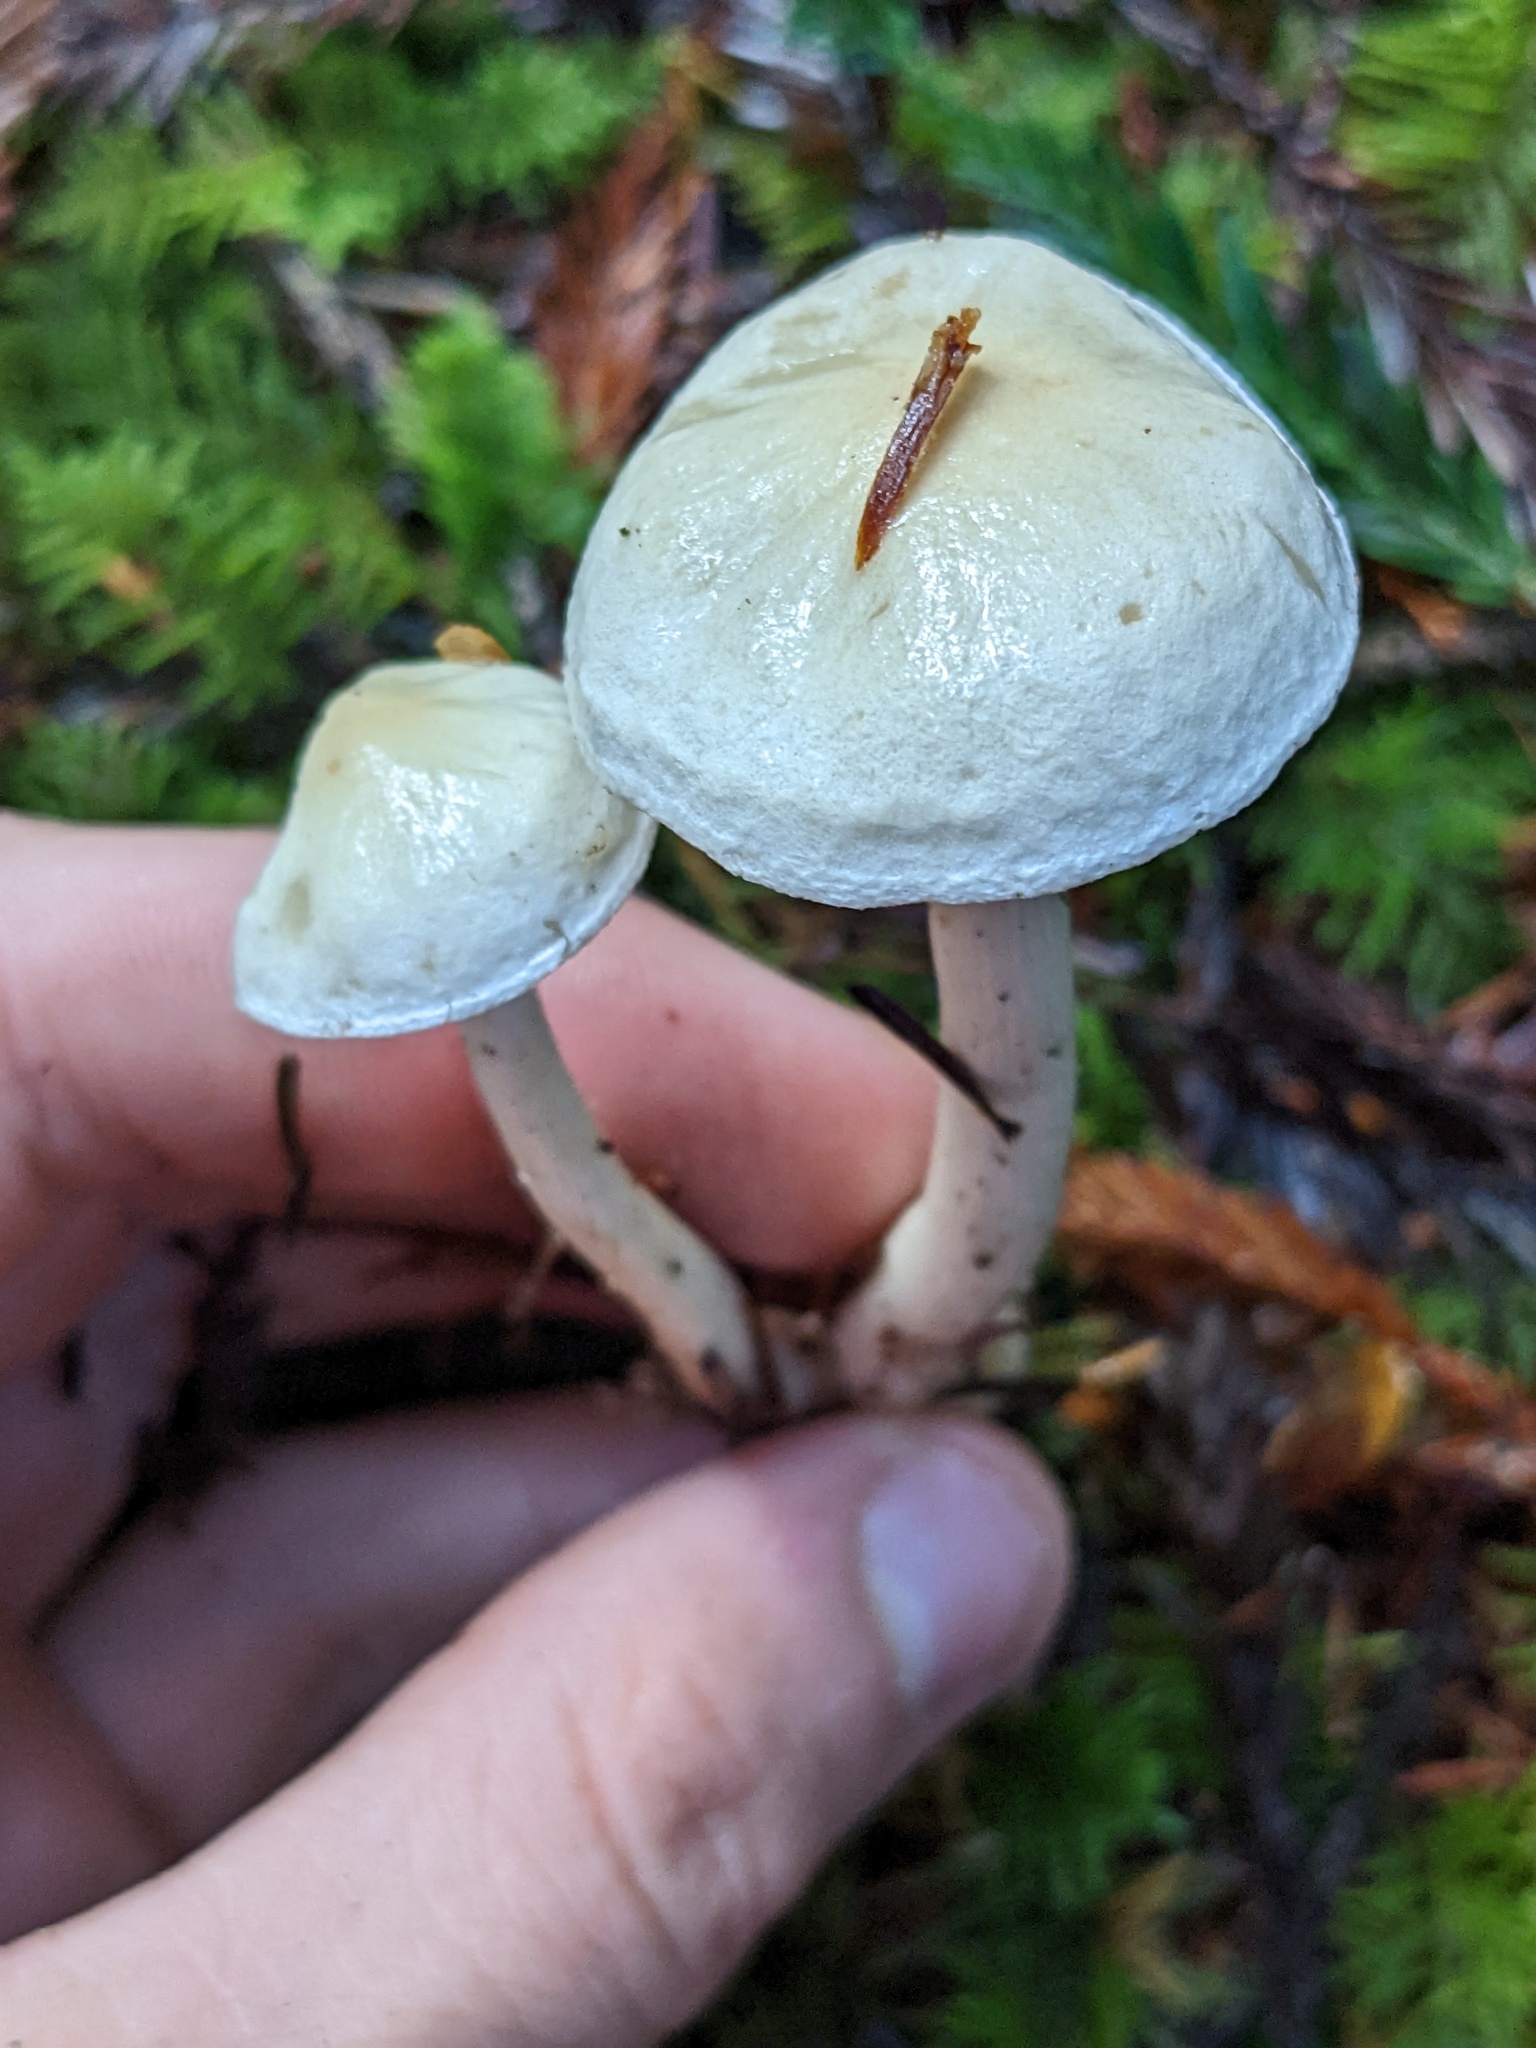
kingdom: Fungi
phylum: Basidiomycota
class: Agaricomycetes
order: Agaricales
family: Tricholomataceae
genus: Tricholoma
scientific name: Tricholoma inamoenum
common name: Gassy knight
